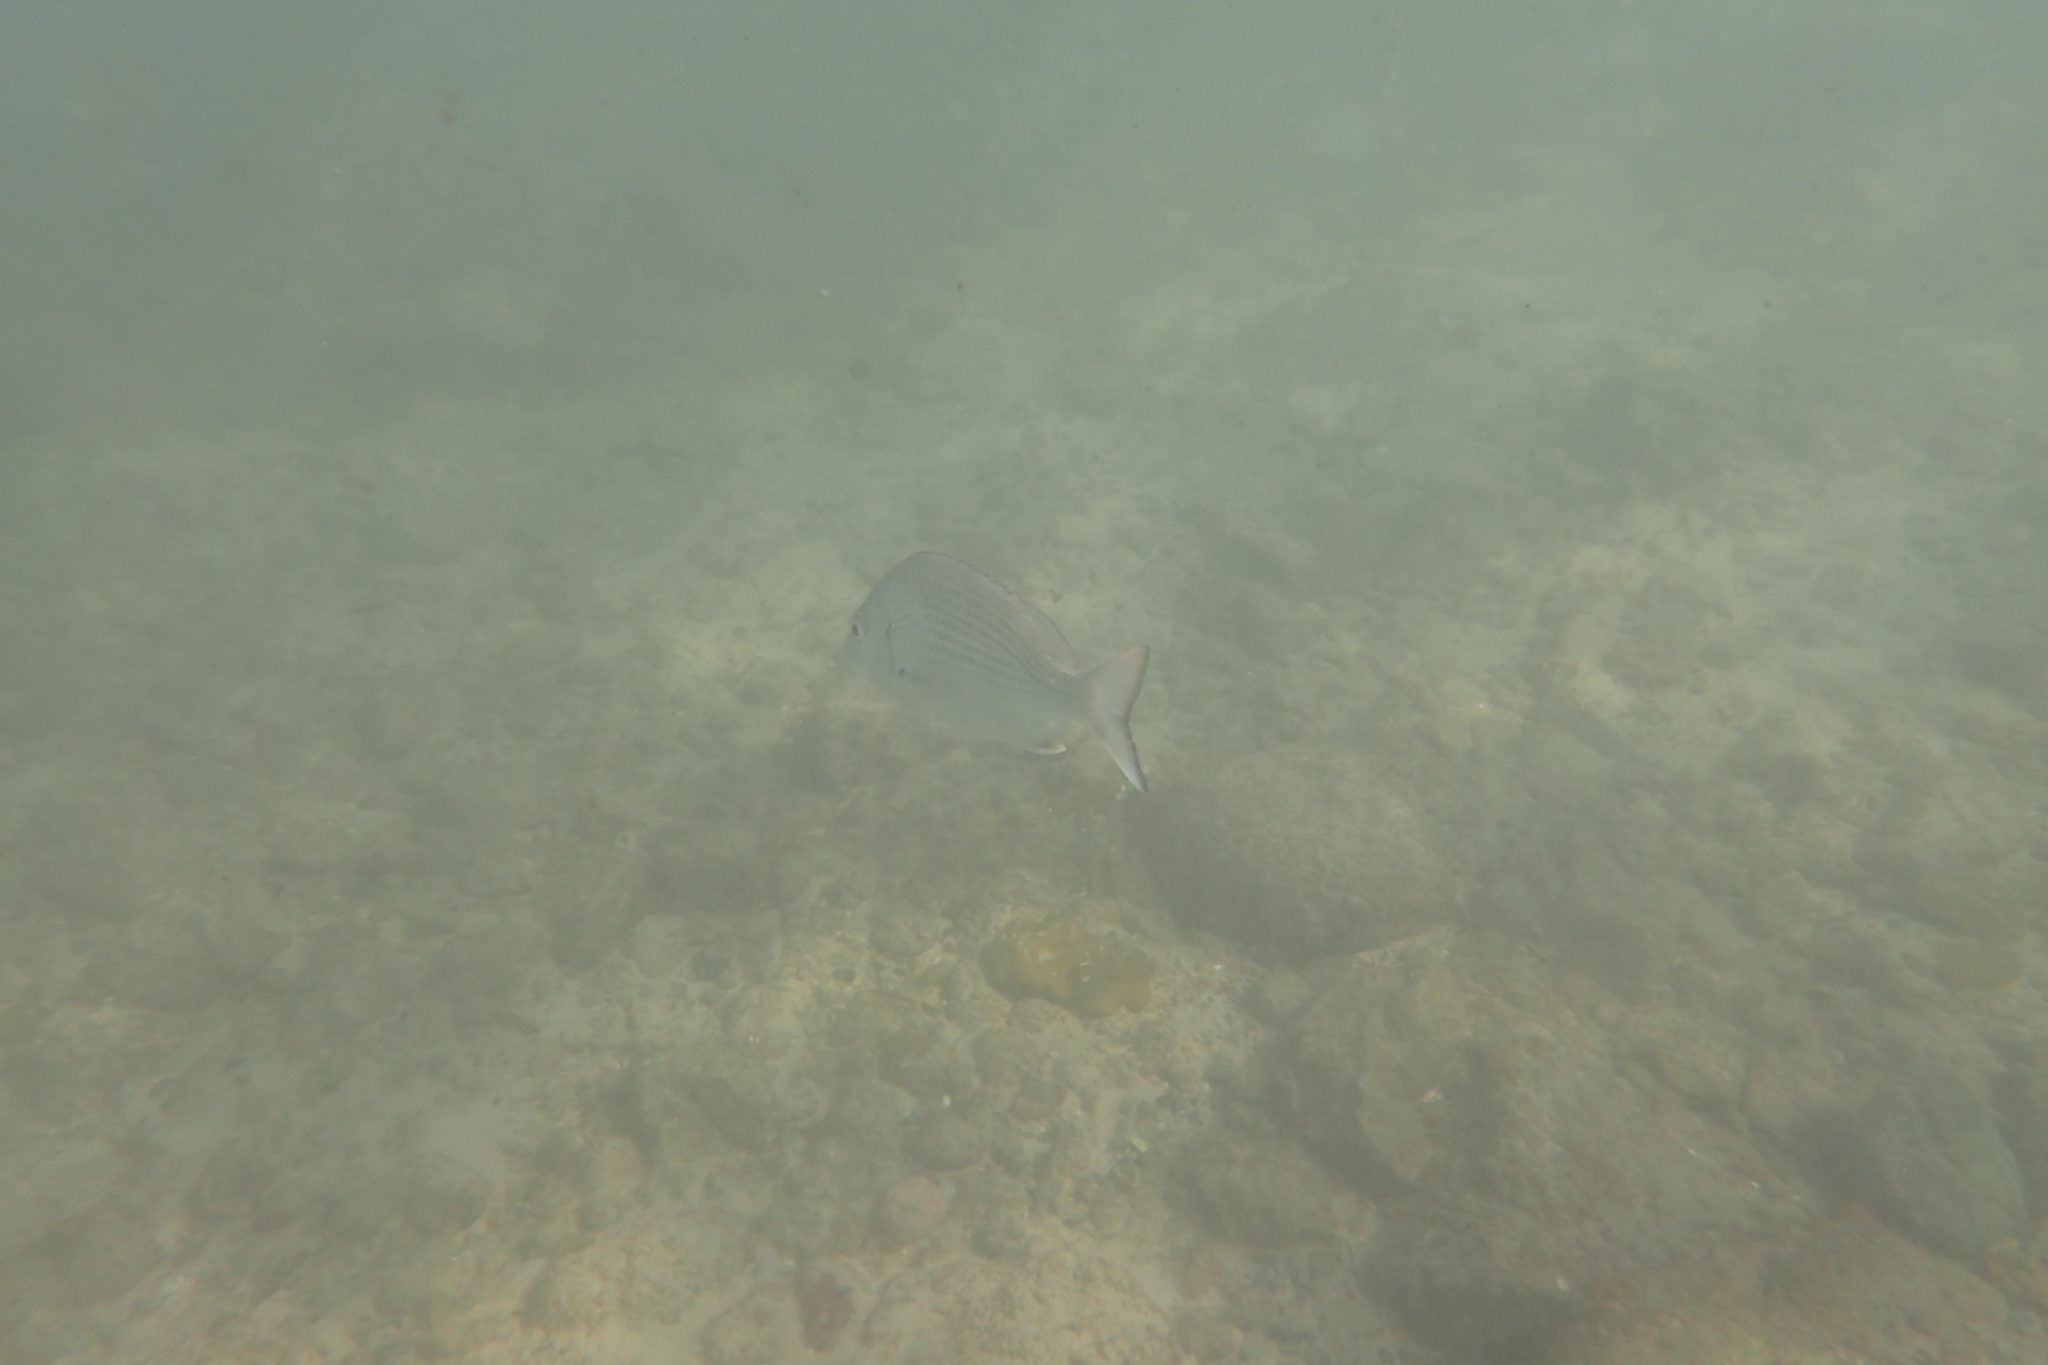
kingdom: Animalia
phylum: Chordata
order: Perciformes
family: Sparidae
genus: Acanthopagrus
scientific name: Acanthopagrus australis
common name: Surf bream
